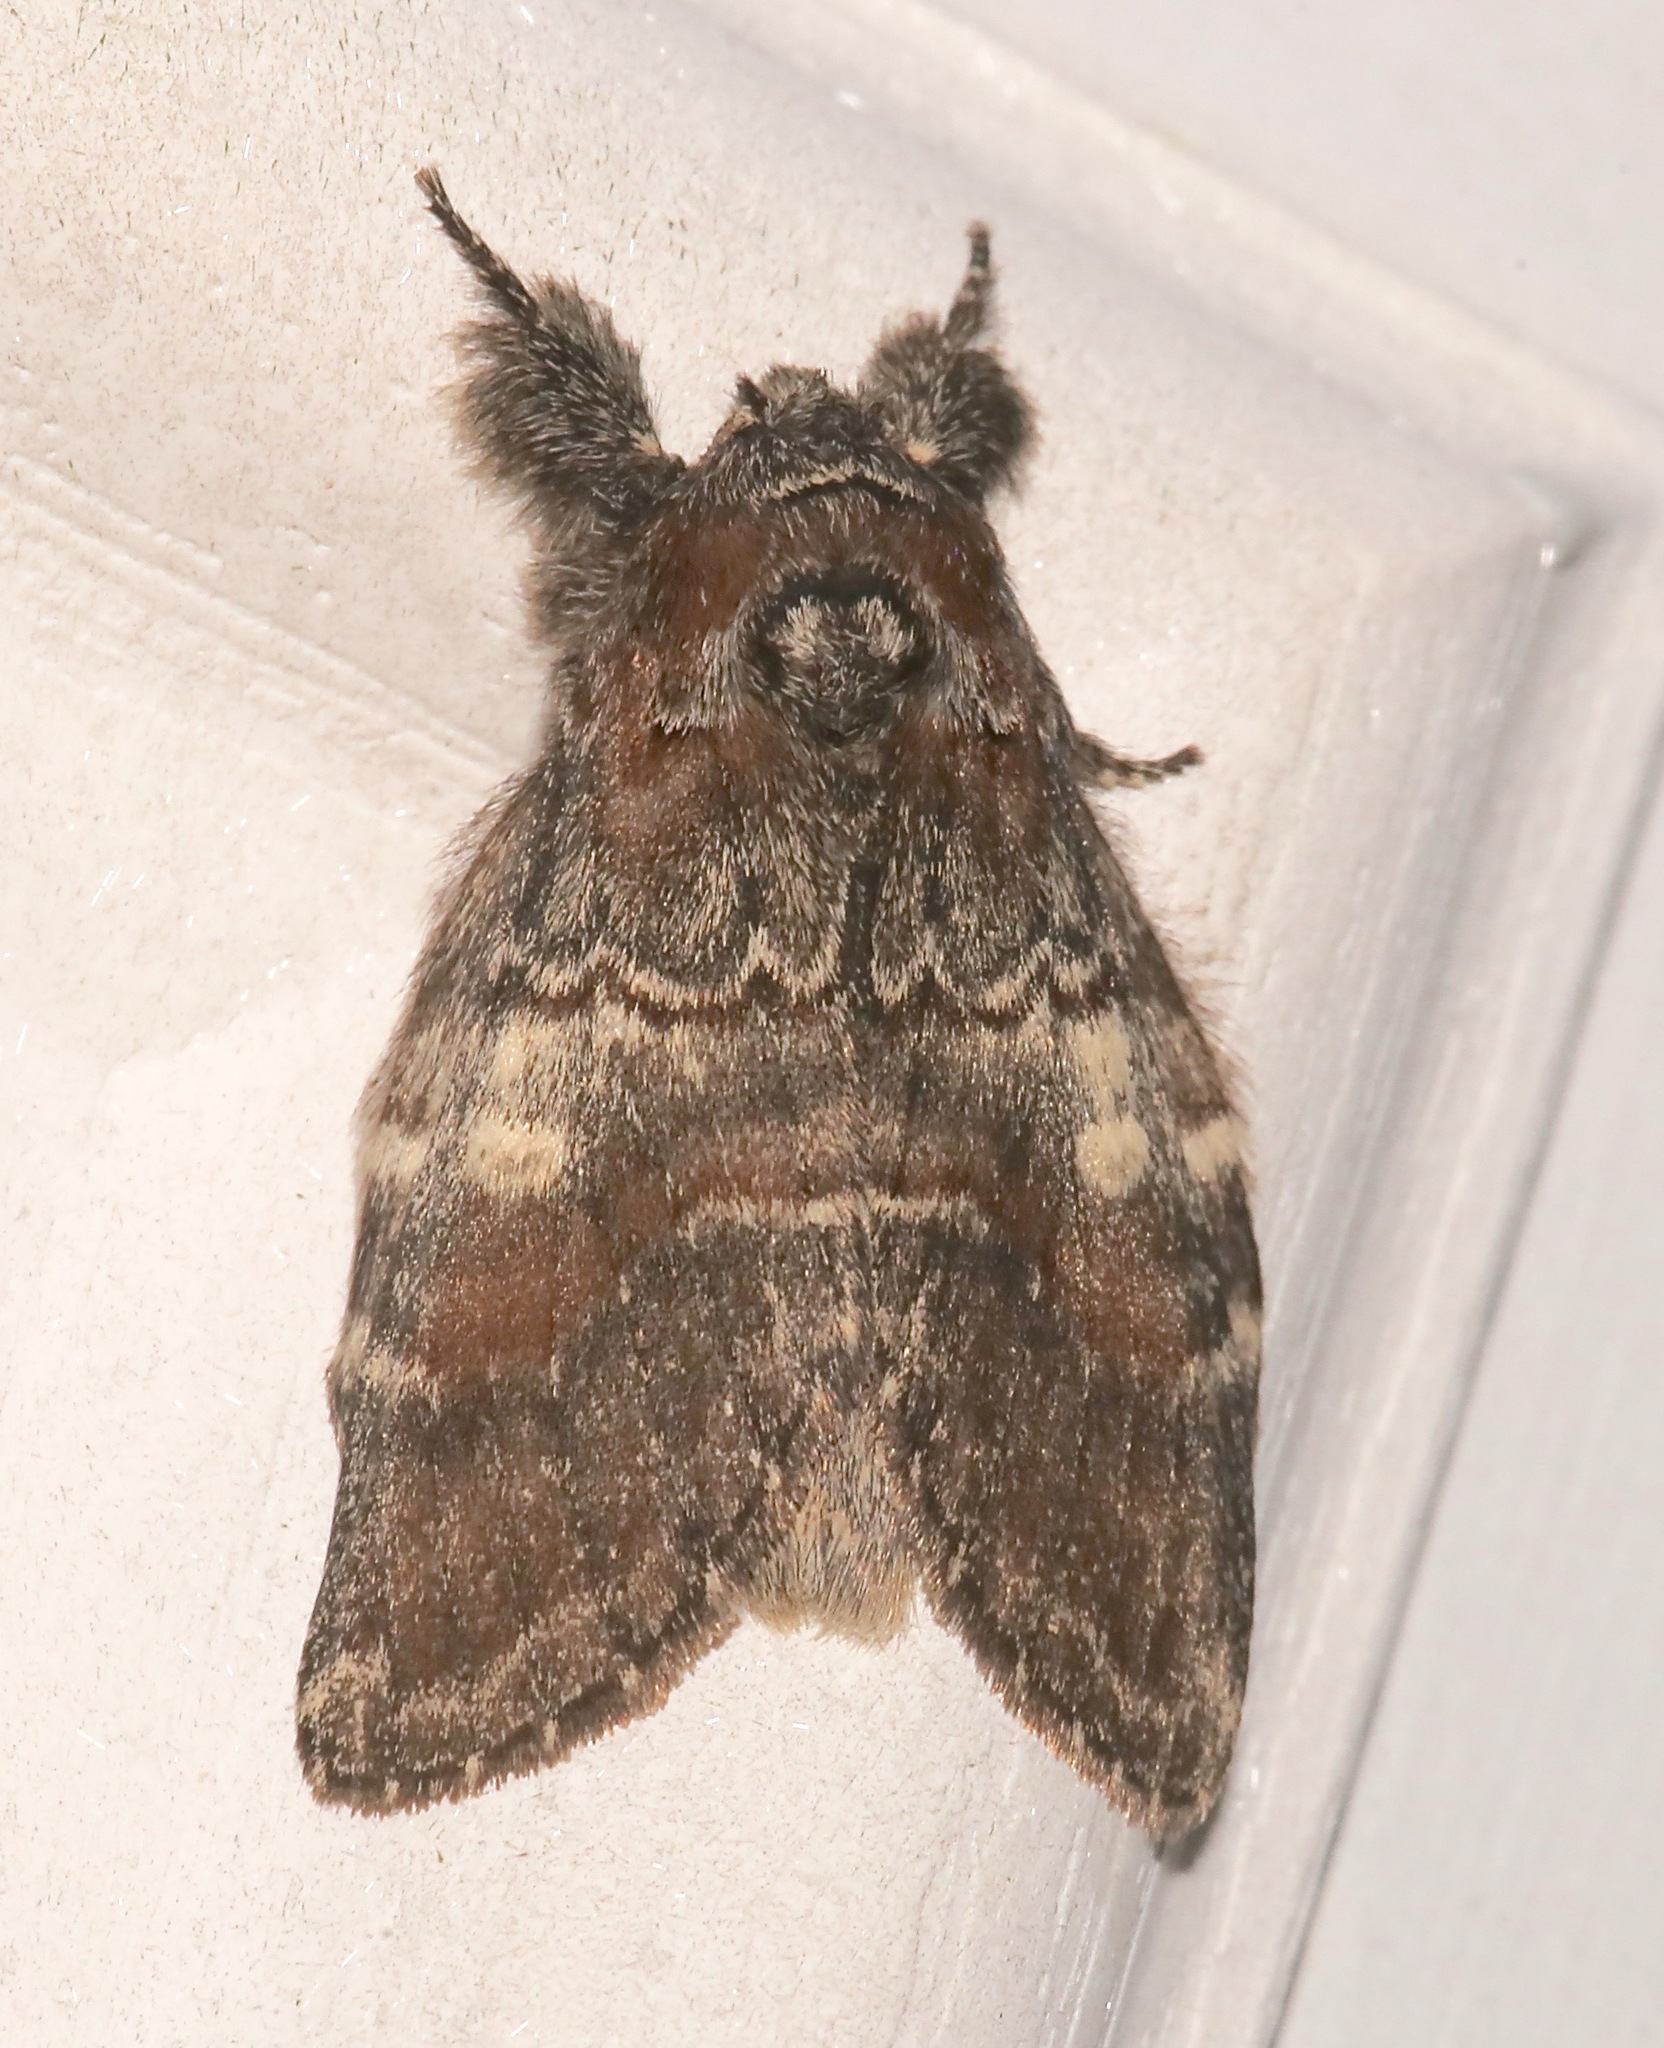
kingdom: Animalia
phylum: Arthropoda
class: Insecta
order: Lepidoptera
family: Notodontidae
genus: Peridea
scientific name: Peridea ferruginea
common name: Chocolate prominent
